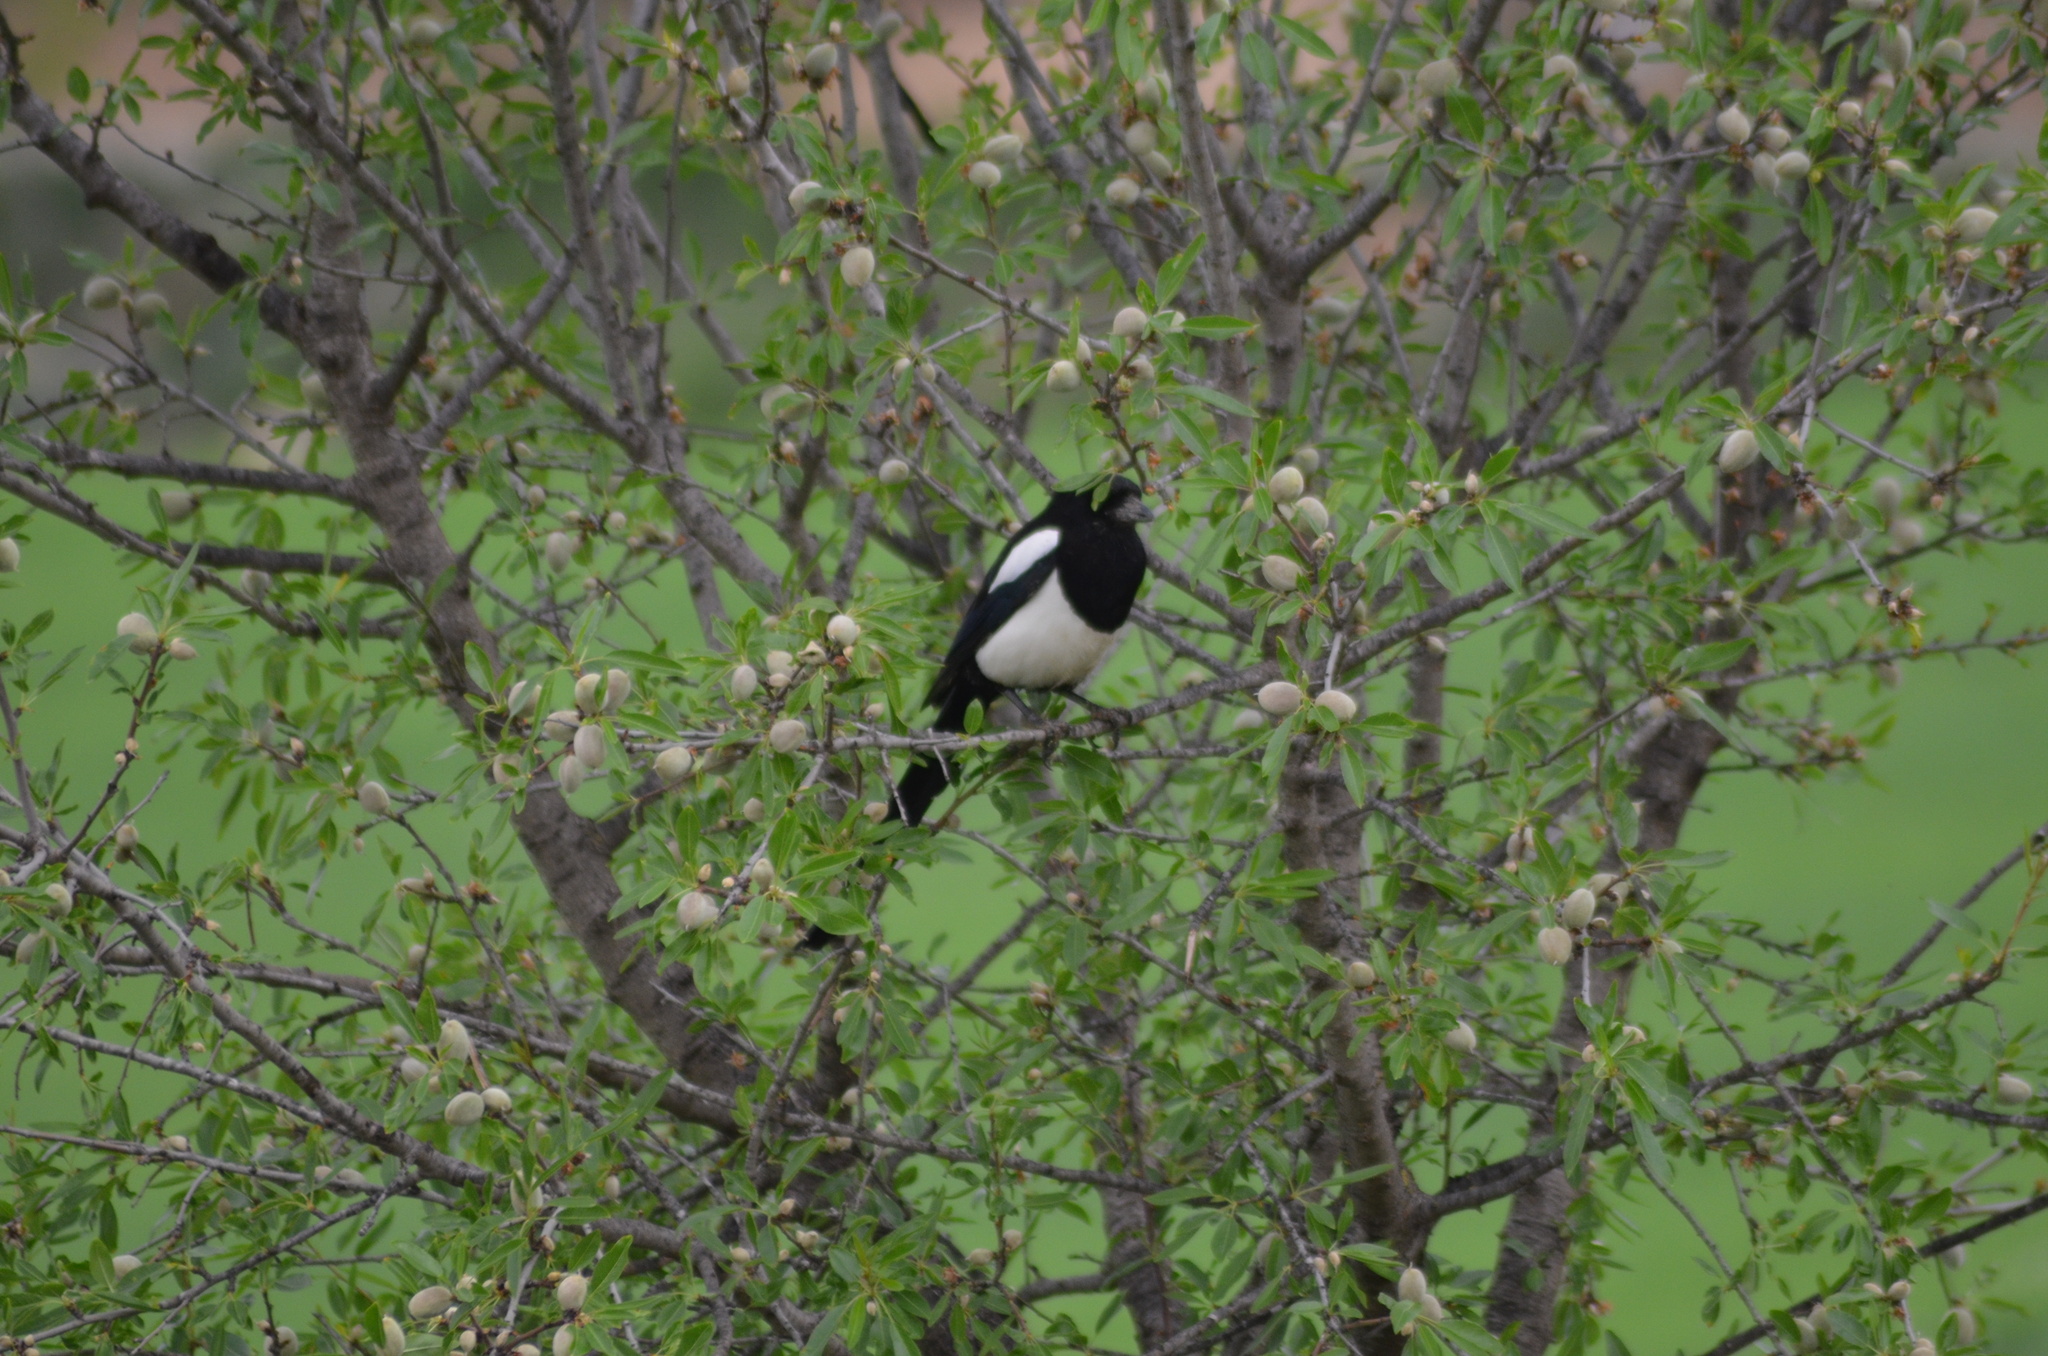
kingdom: Animalia
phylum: Chordata
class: Aves
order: Passeriformes
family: Corvidae
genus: Pica
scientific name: Pica pica
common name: Eurasian magpie
